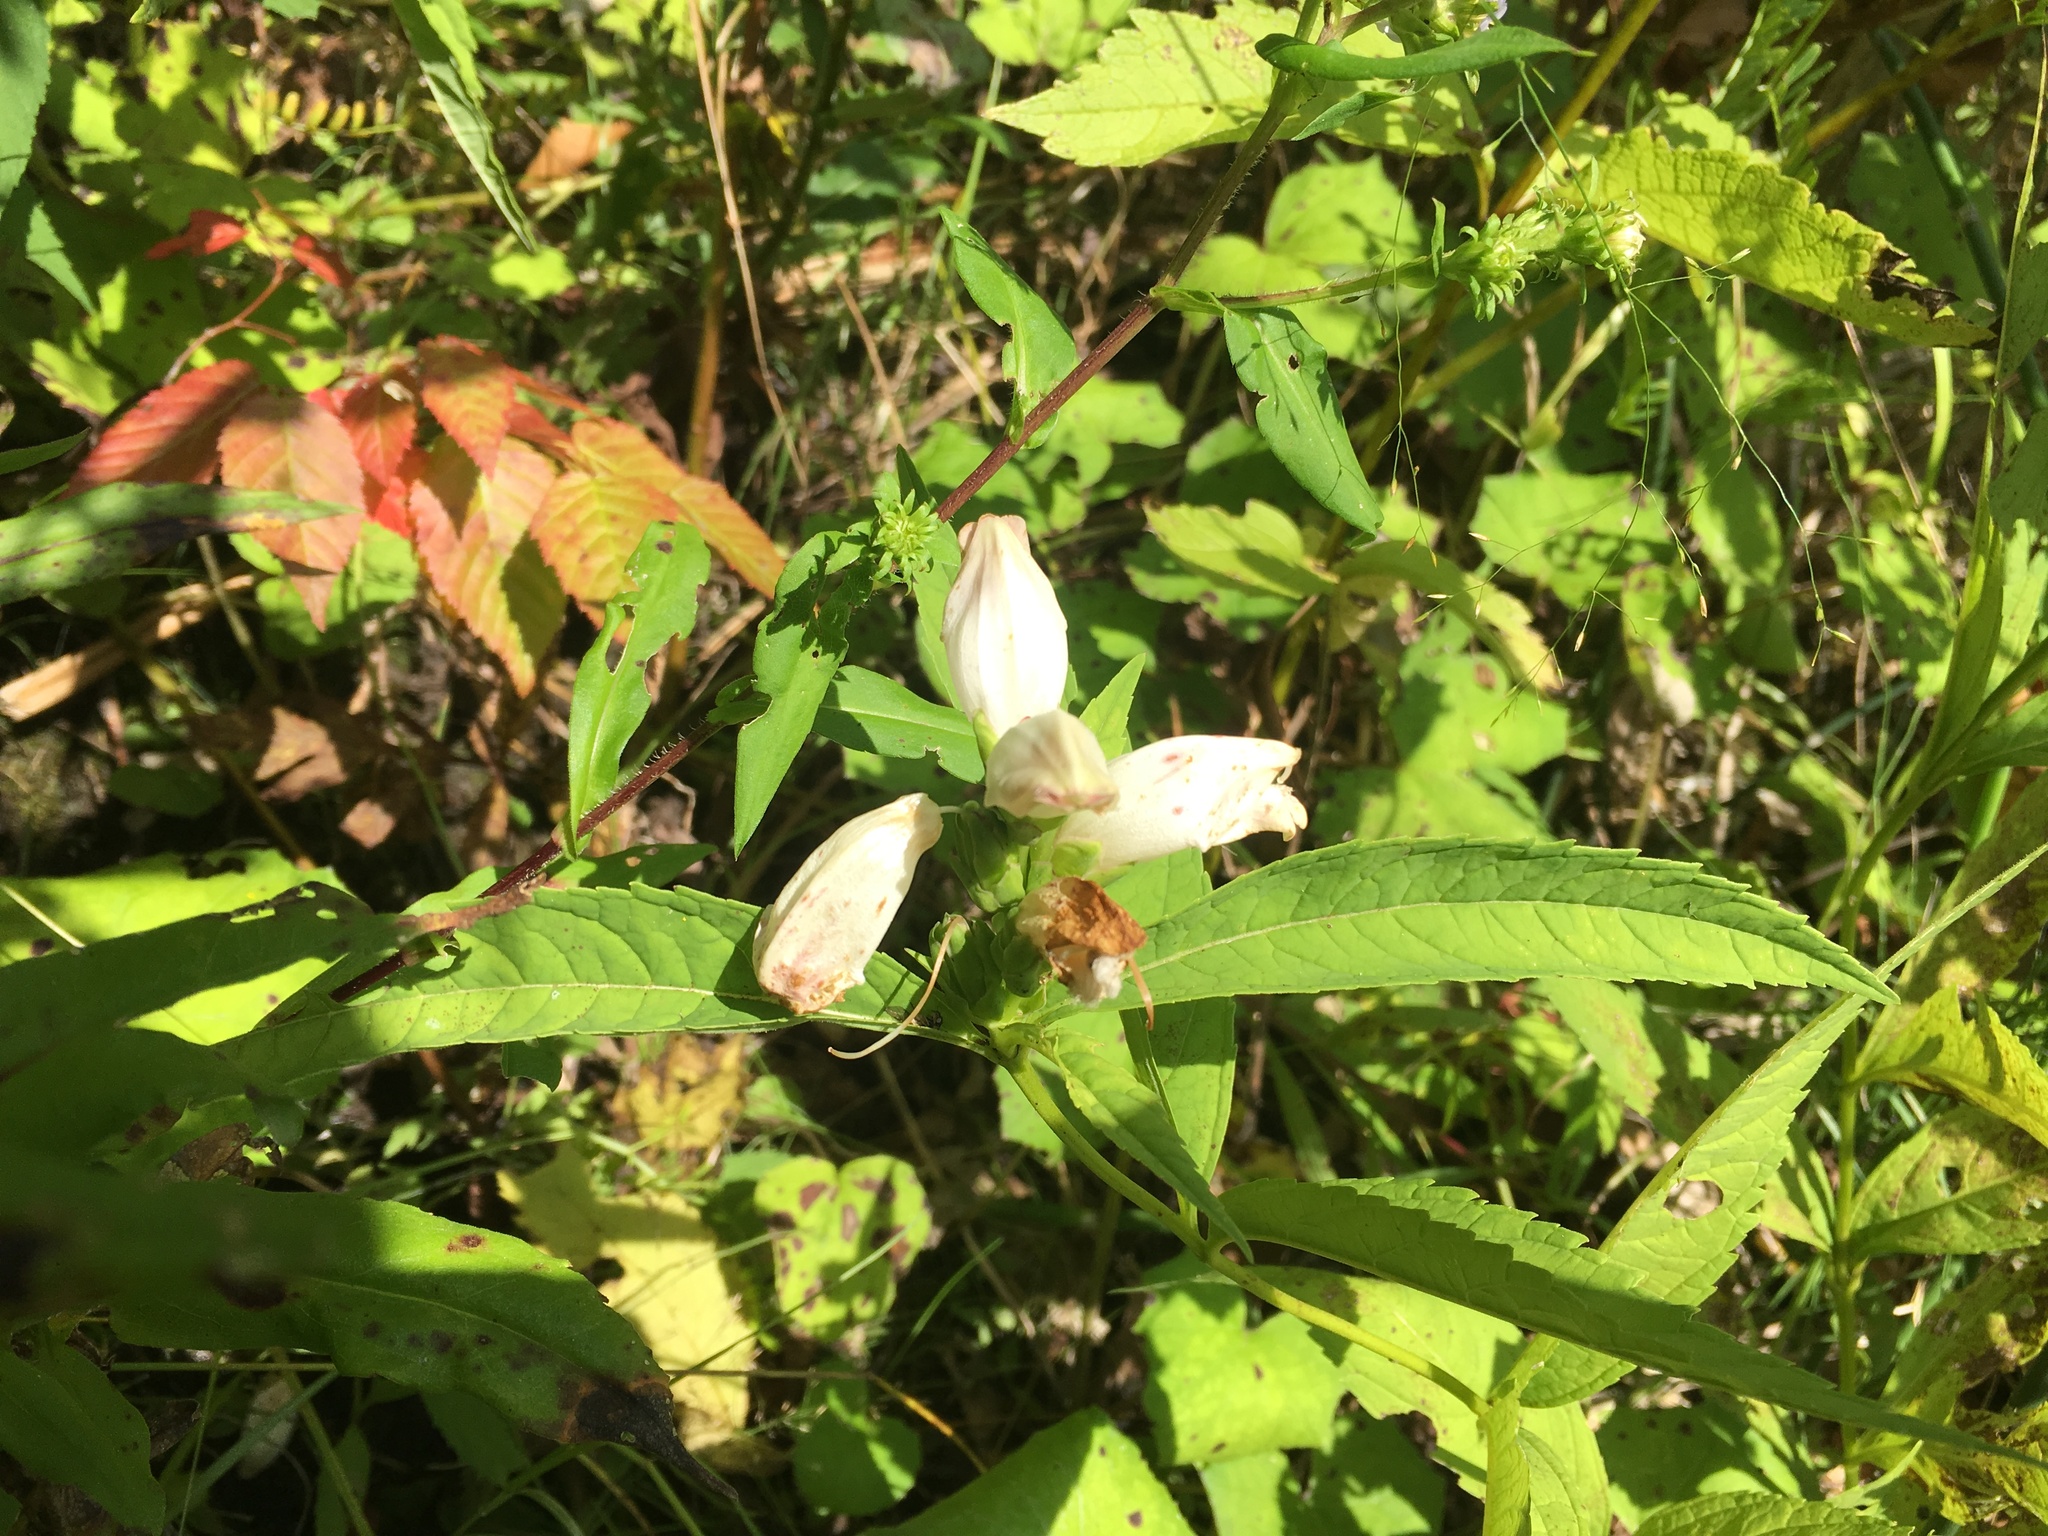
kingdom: Plantae
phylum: Tracheophyta
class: Magnoliopsida
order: Lamiales
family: Plantaginaceae
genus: Chelone
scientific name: Chelone glabra
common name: Snakehead
